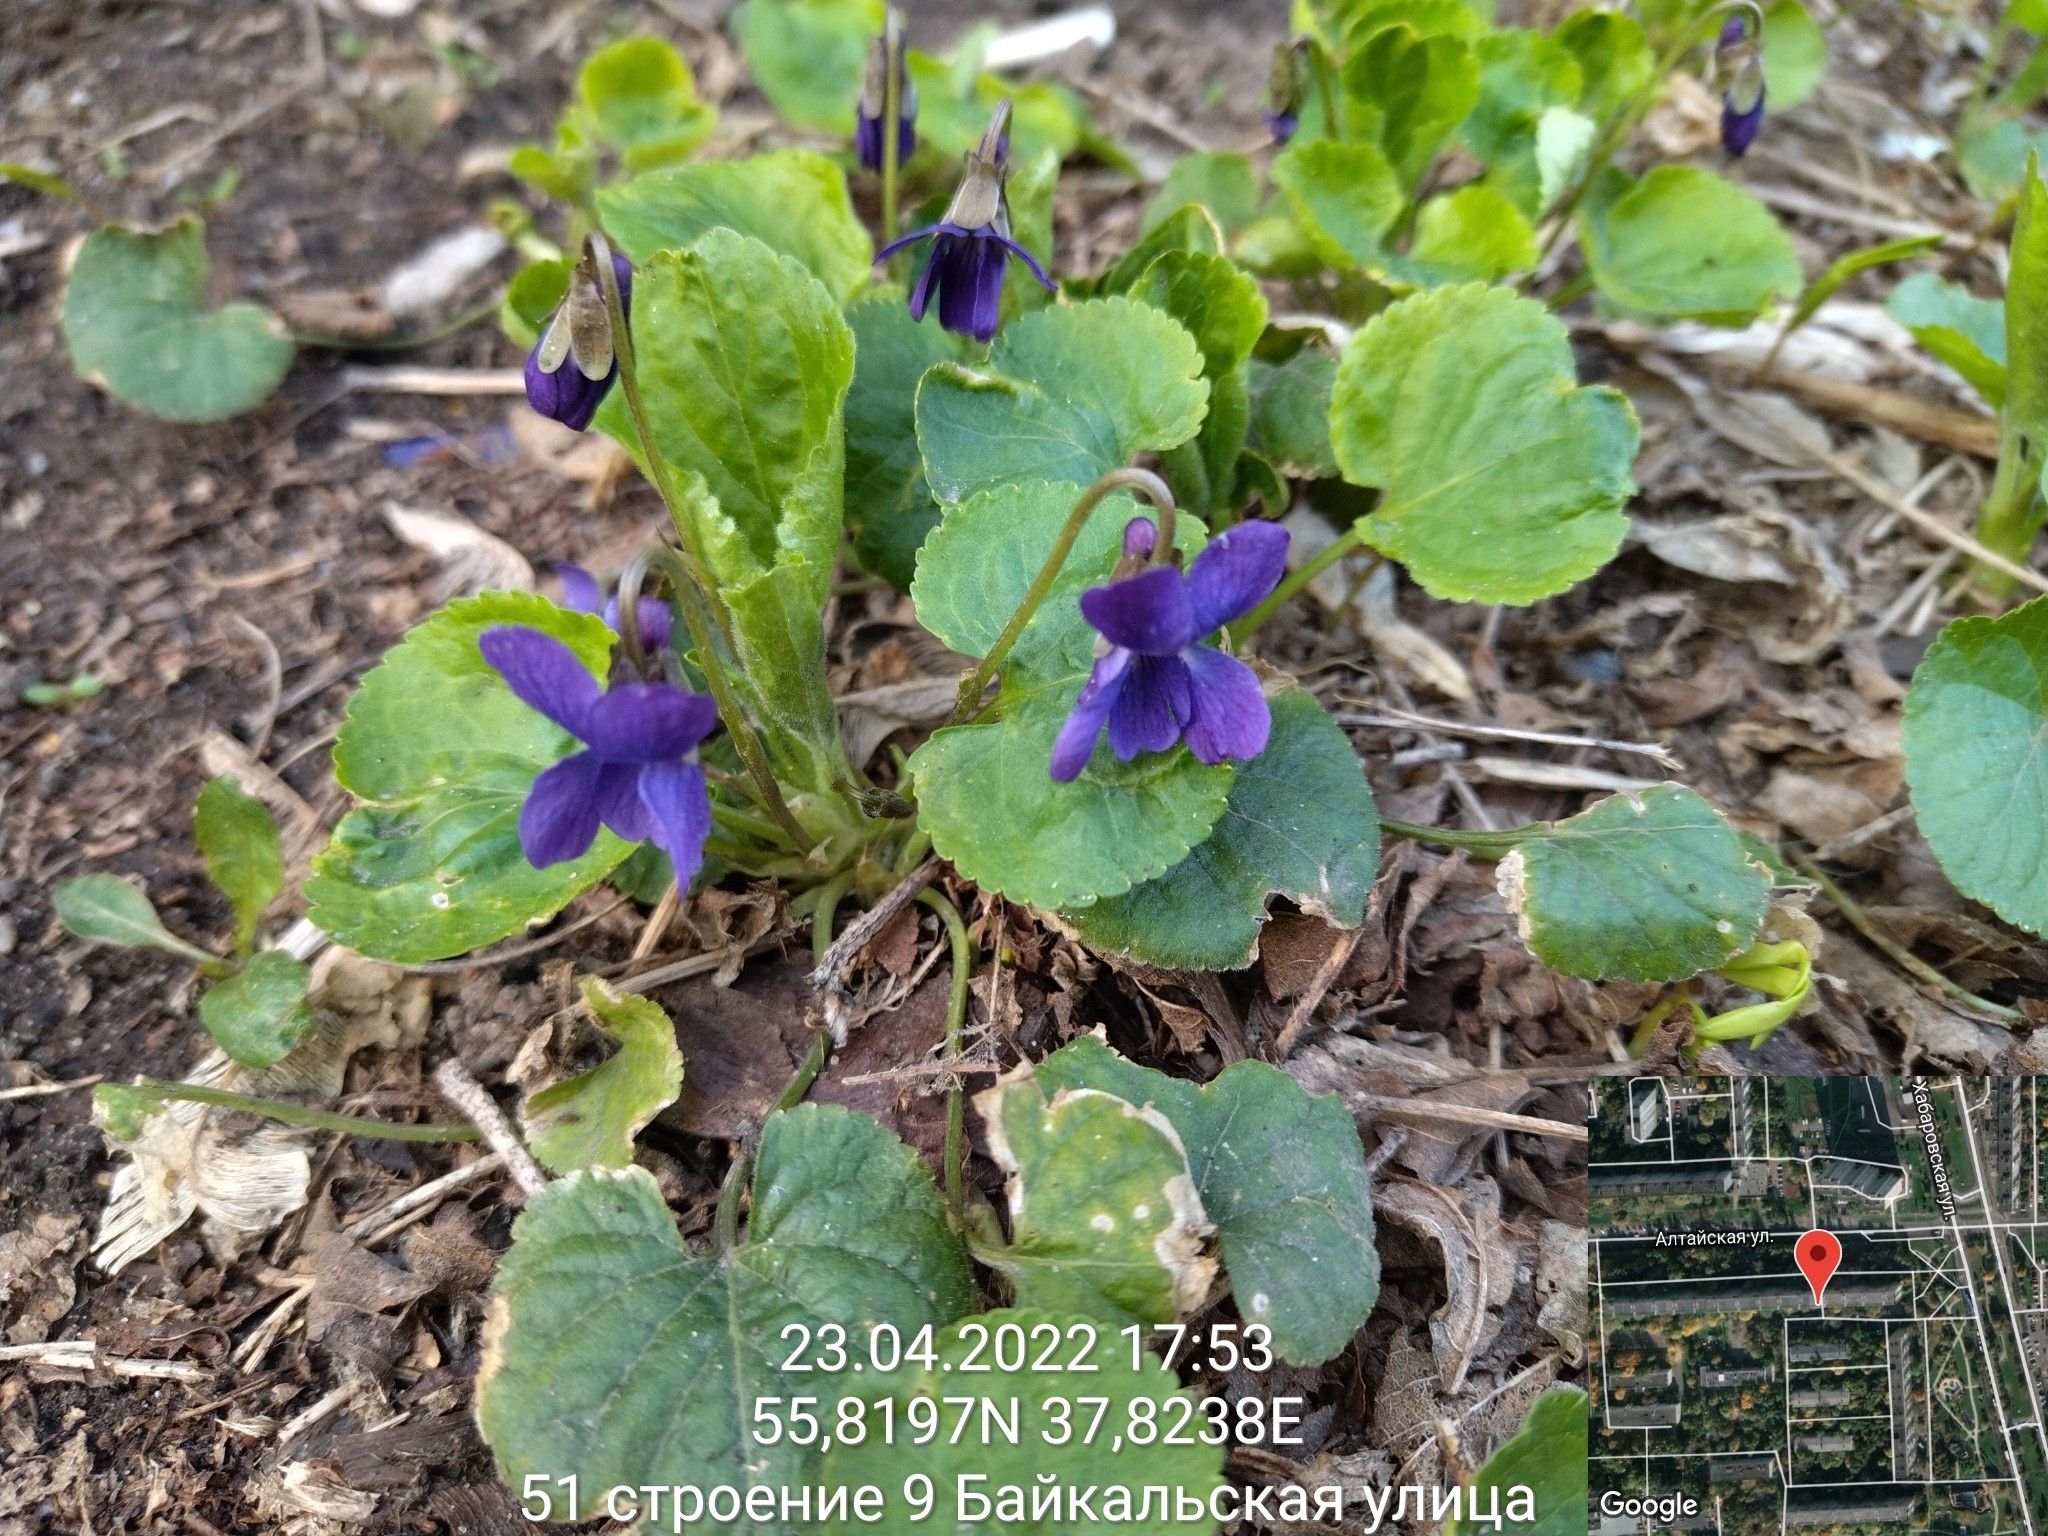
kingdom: Plantae
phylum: Tracheophyta
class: Magnoliopsida
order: Malpighiales
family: Violaceae
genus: Viola
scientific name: Viola odorata
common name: Sweet violet
